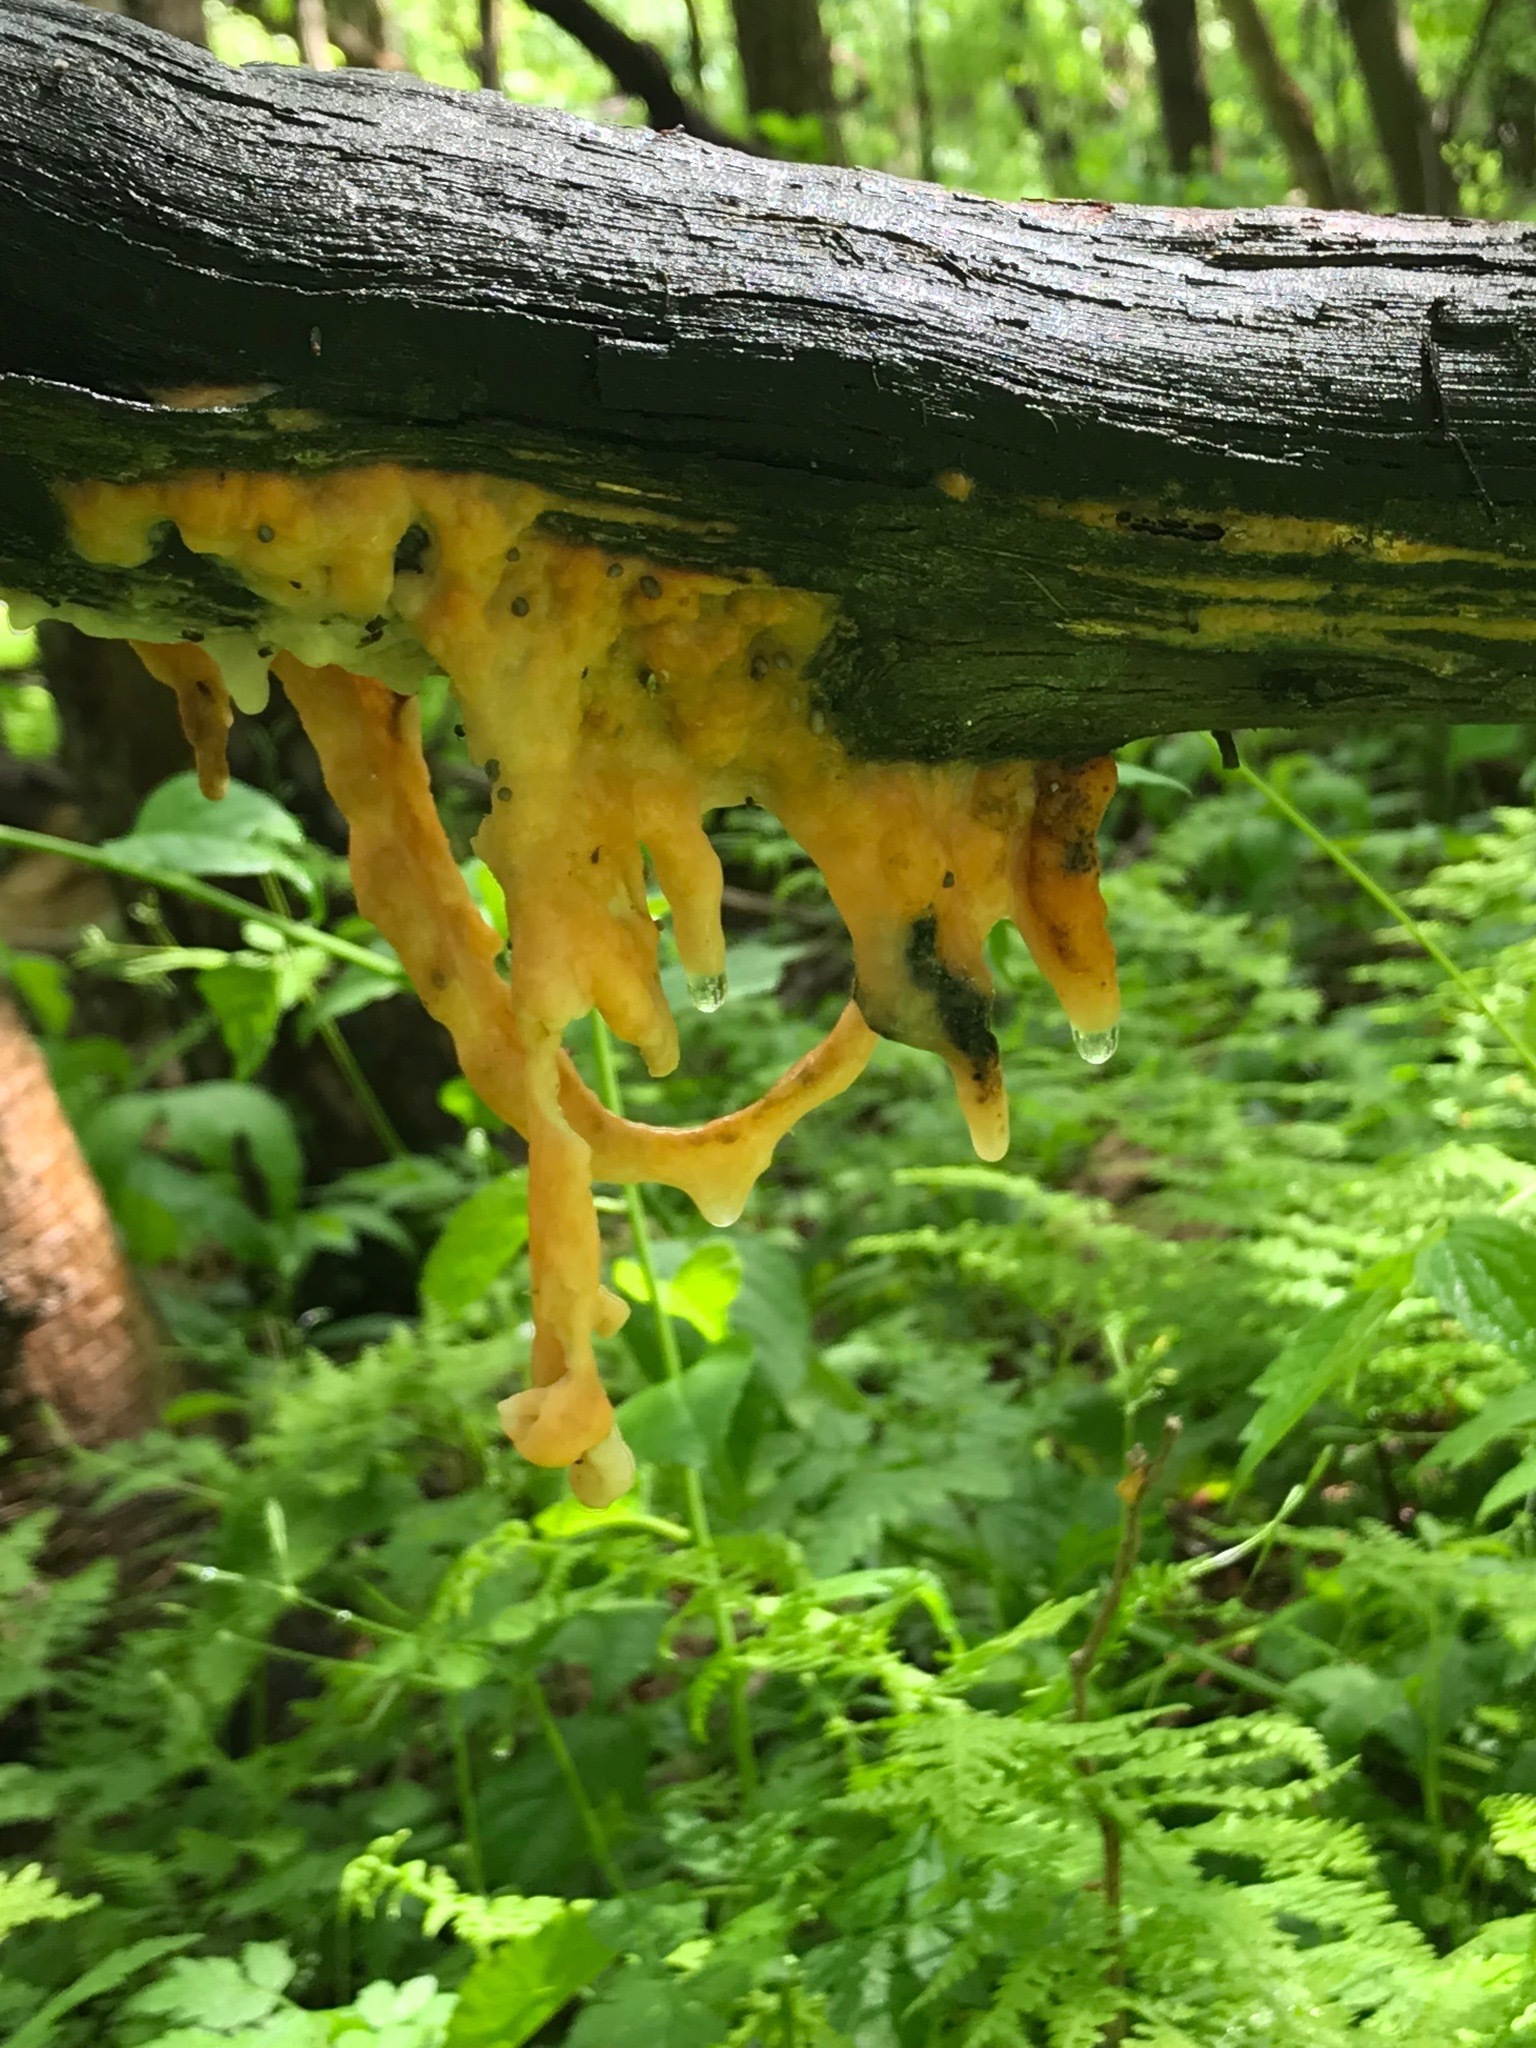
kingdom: Fungi
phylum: Ascomycota
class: Sordariomycetes
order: Hypocreales
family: Nectriaceae
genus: Fusicolla
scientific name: Fusicolla merismoides
